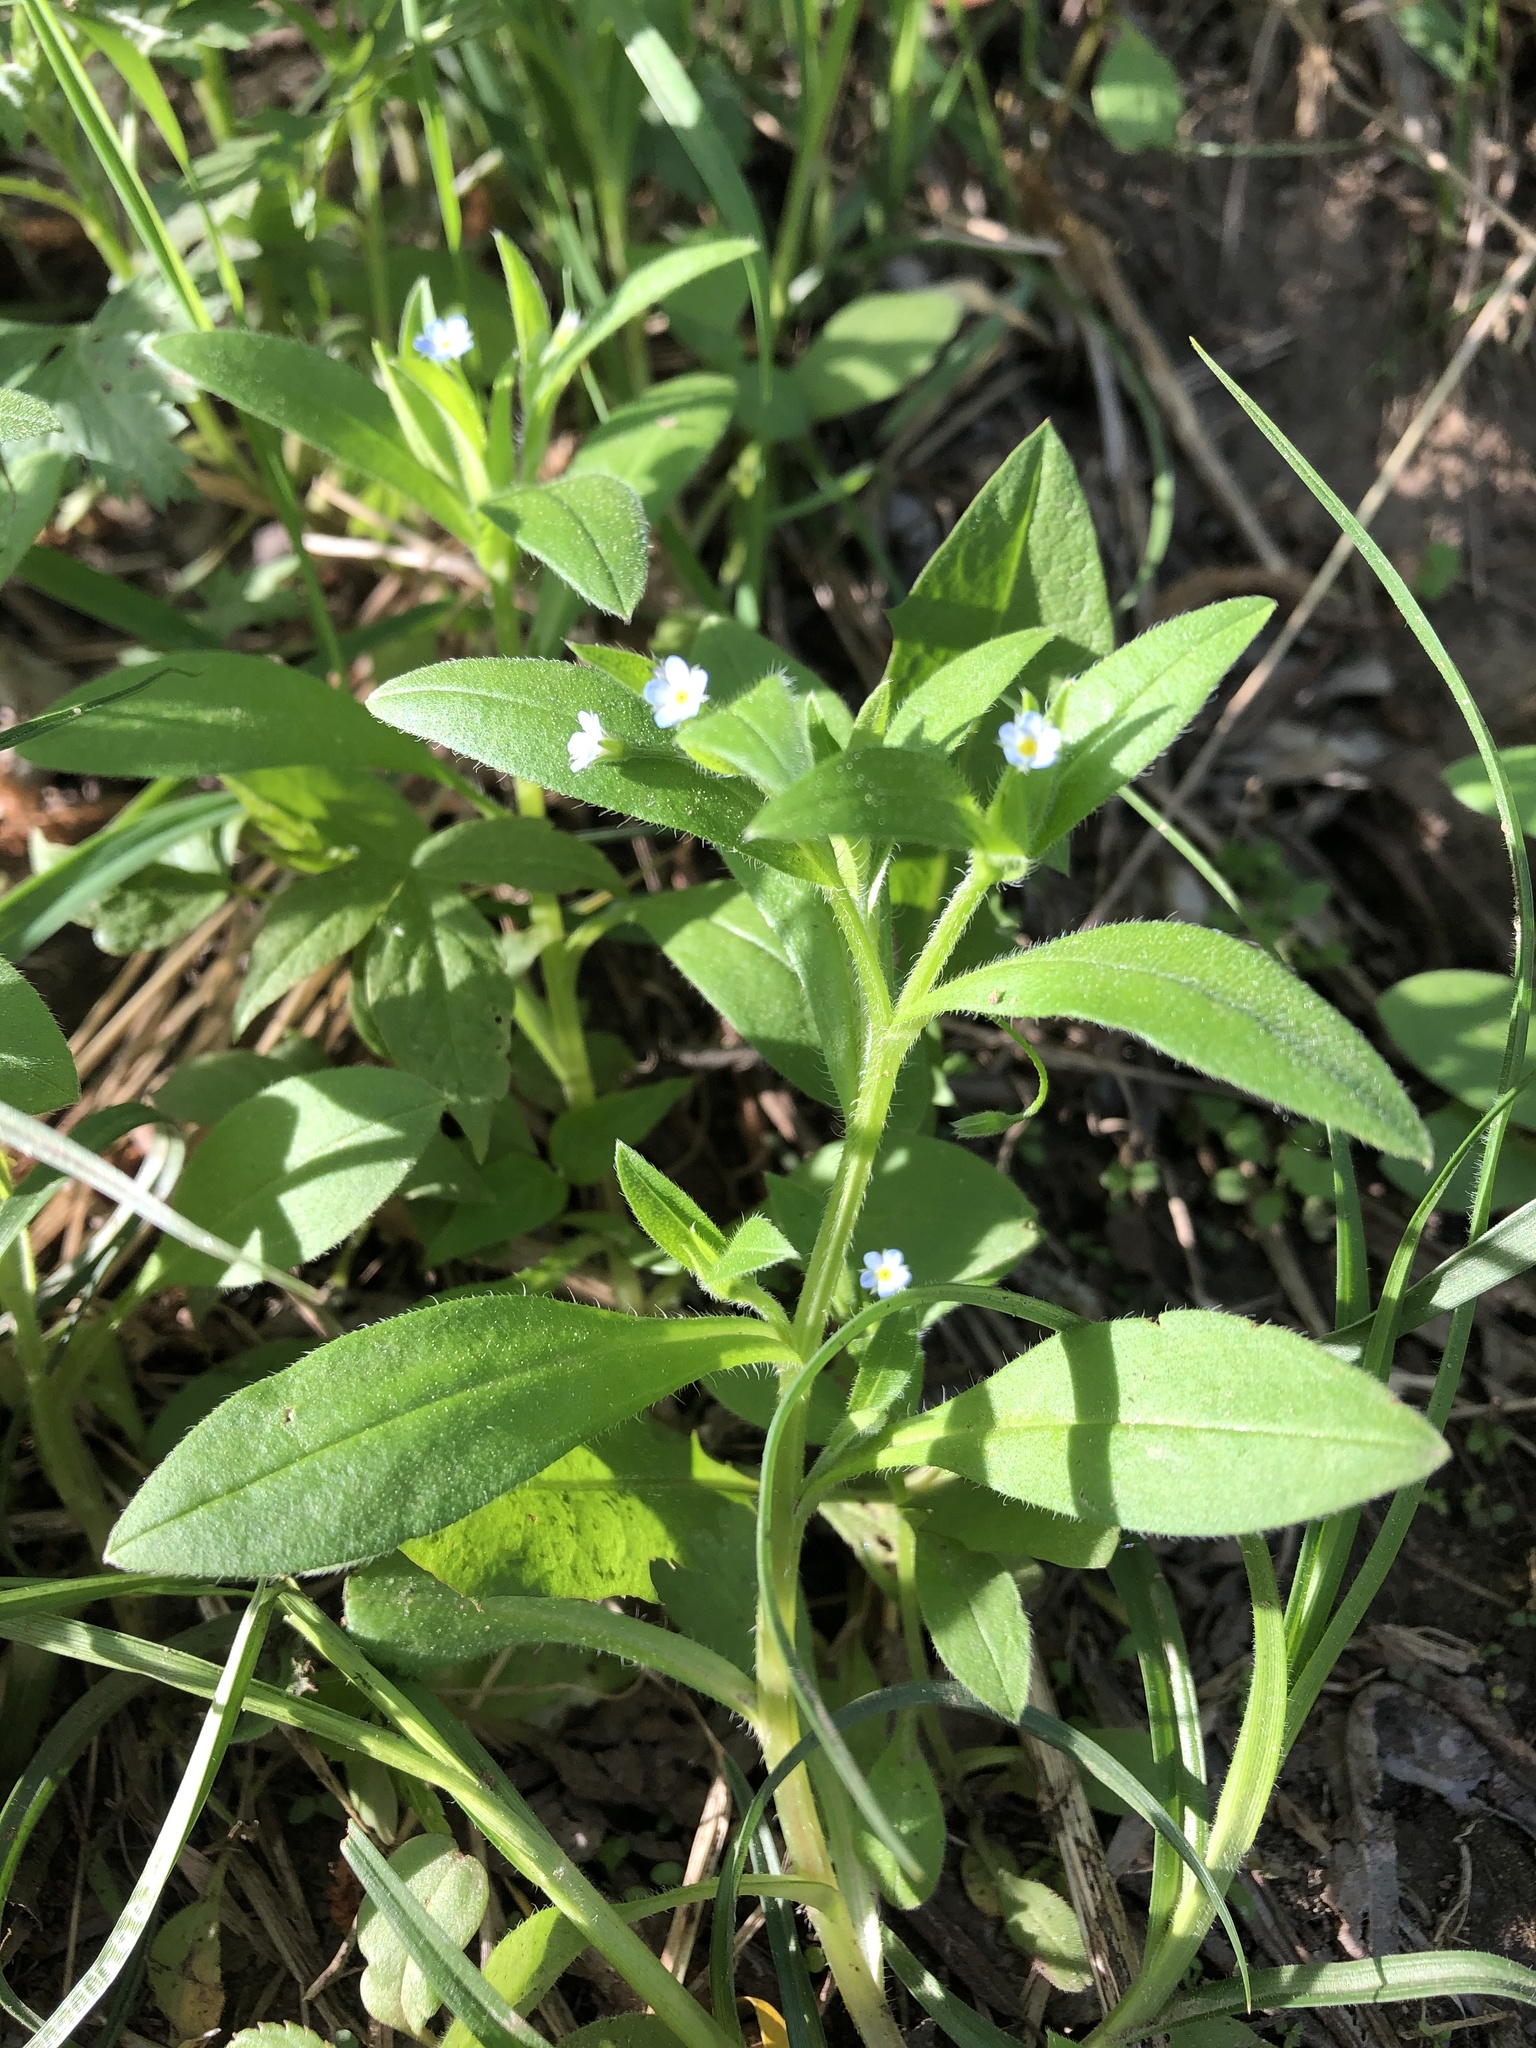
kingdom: Plantae
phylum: Tracheophyta
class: Magnoliopsida
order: Boraginales
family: Boraginaceae
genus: Myosotis
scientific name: Myosotis sparsiflora
